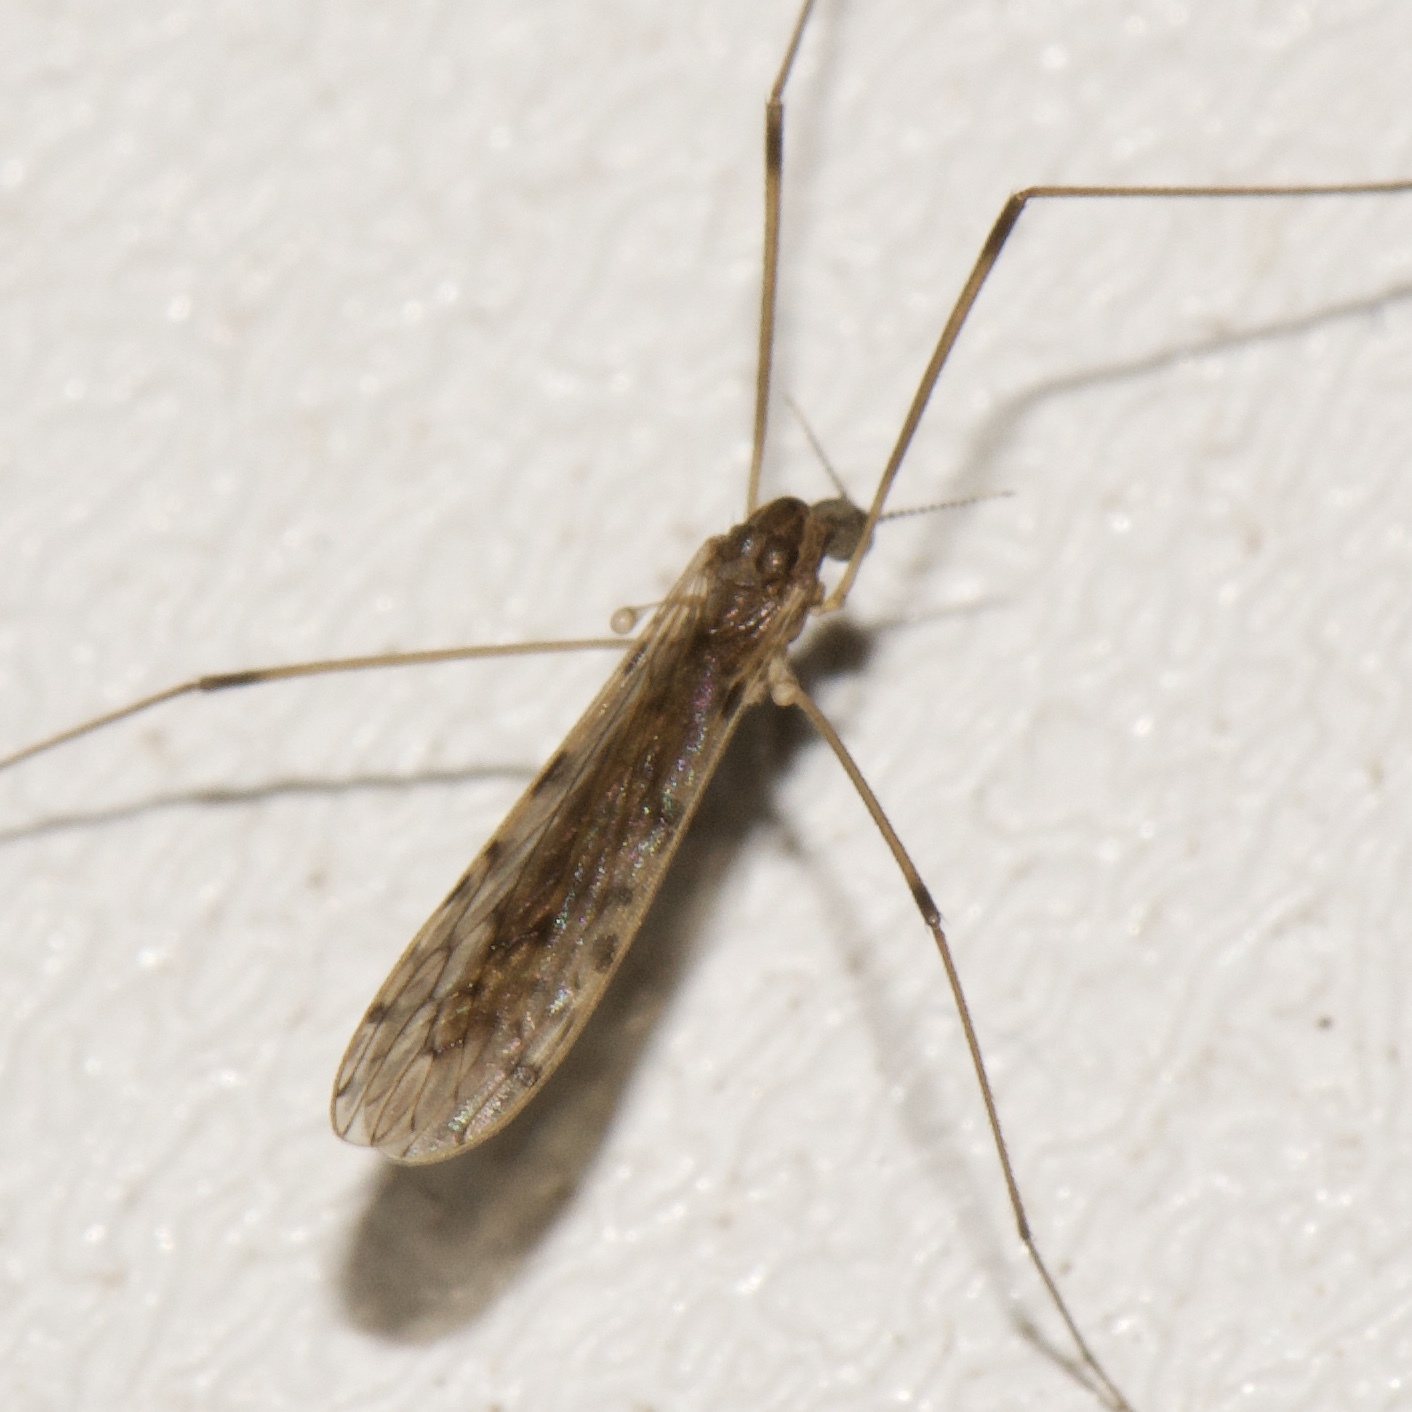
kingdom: Animalia
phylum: Arthropoda
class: Insecta
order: Diptera
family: Limoniidae
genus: Rhipidia
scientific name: Rhipidia domestica
